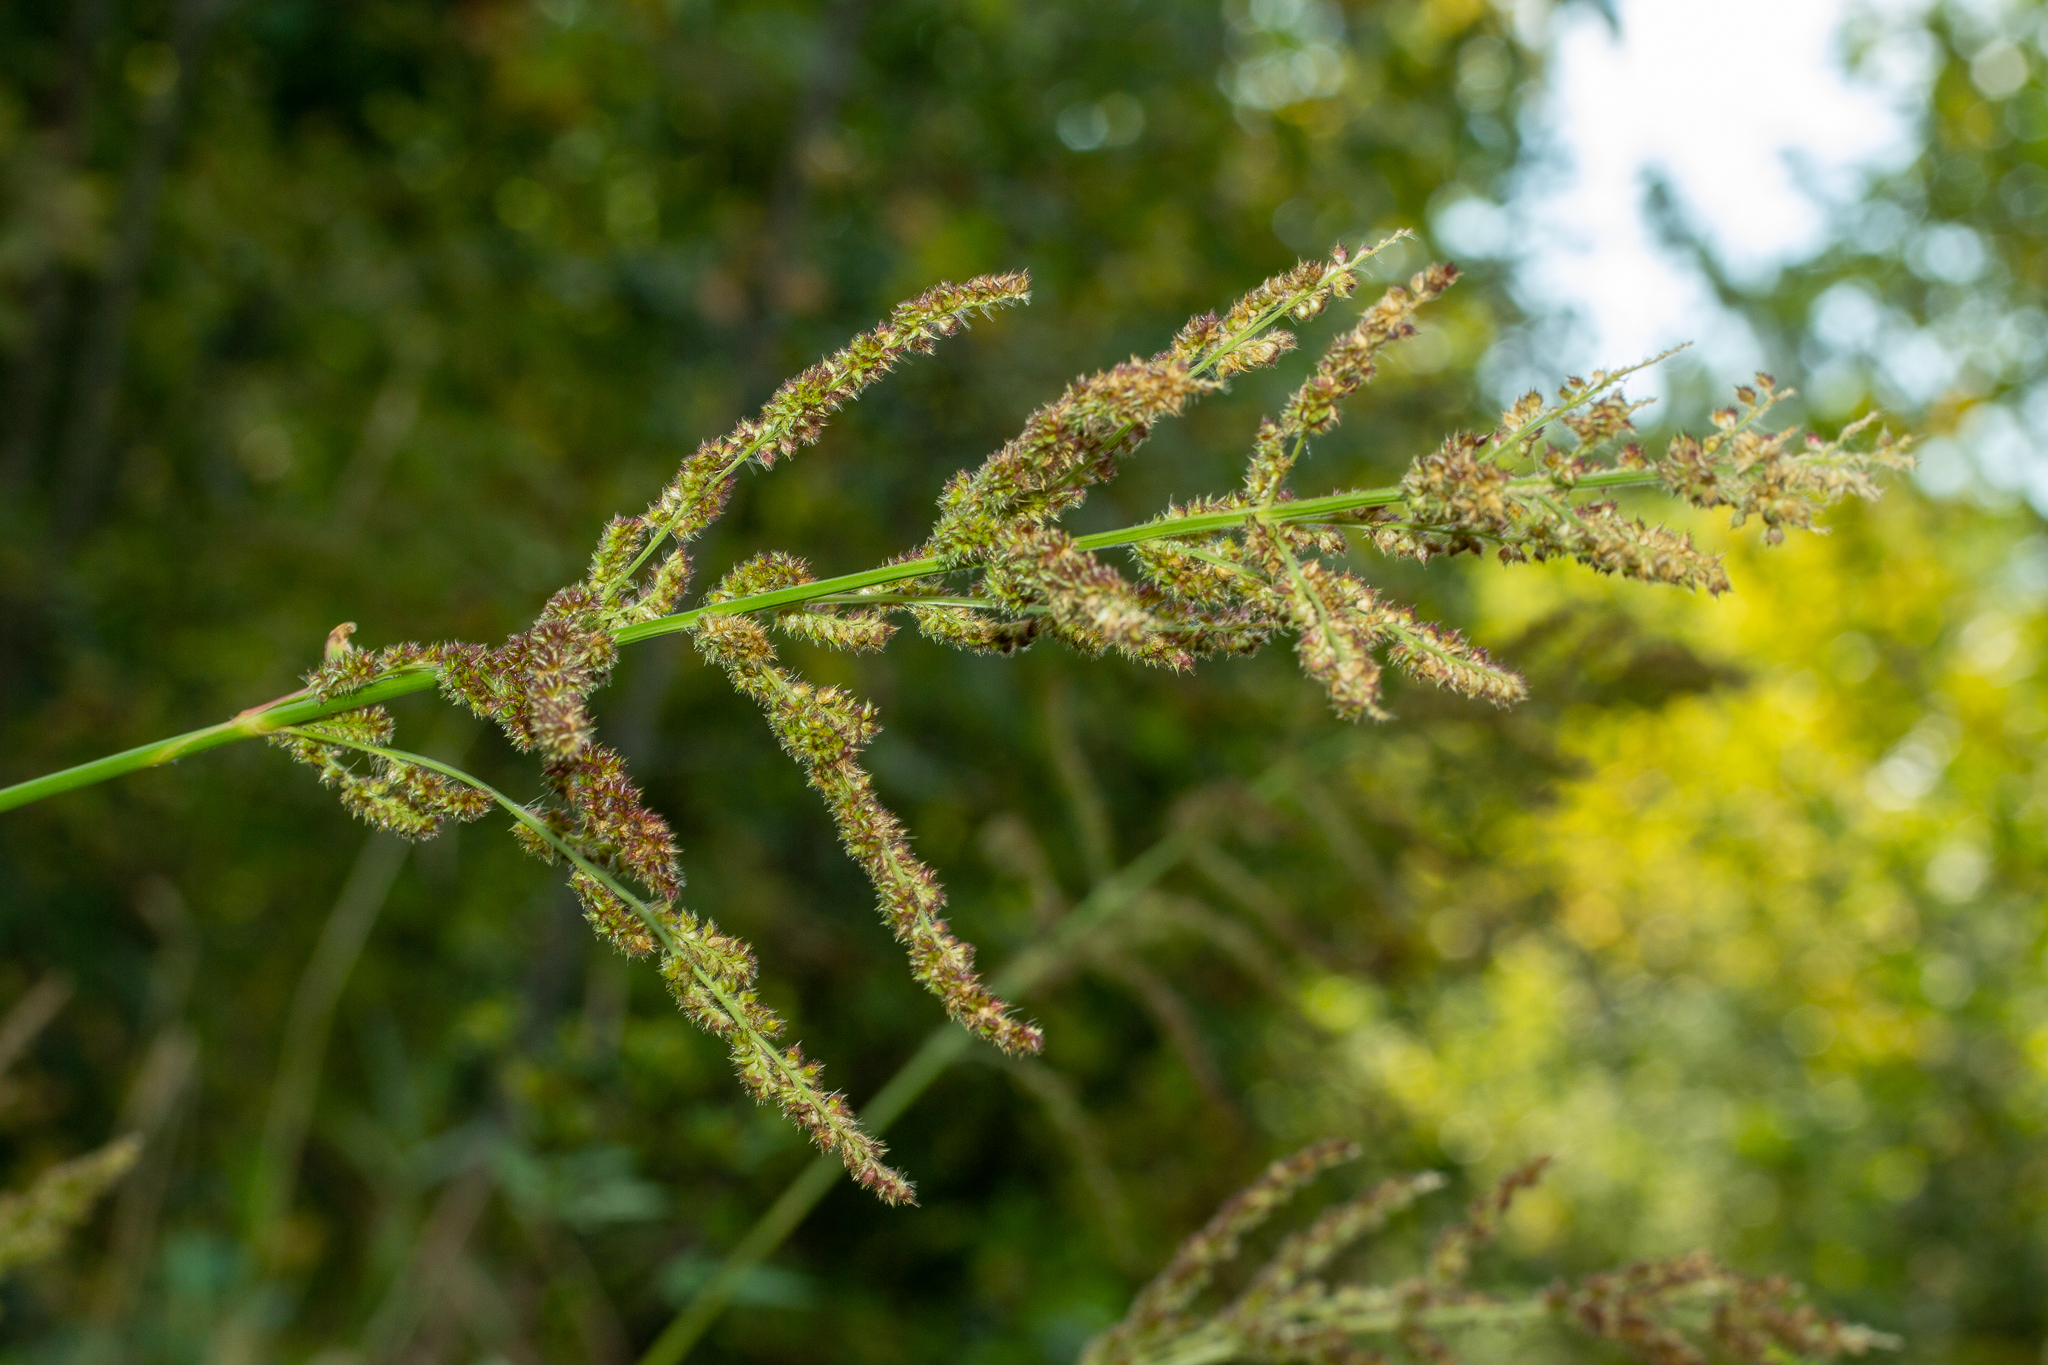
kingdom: Plantae
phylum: Tracheophyta
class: Liliopsida
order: Poales
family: Poaceae
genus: Echinochloa
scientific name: Echinochloa crus-galli
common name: Cockspur
